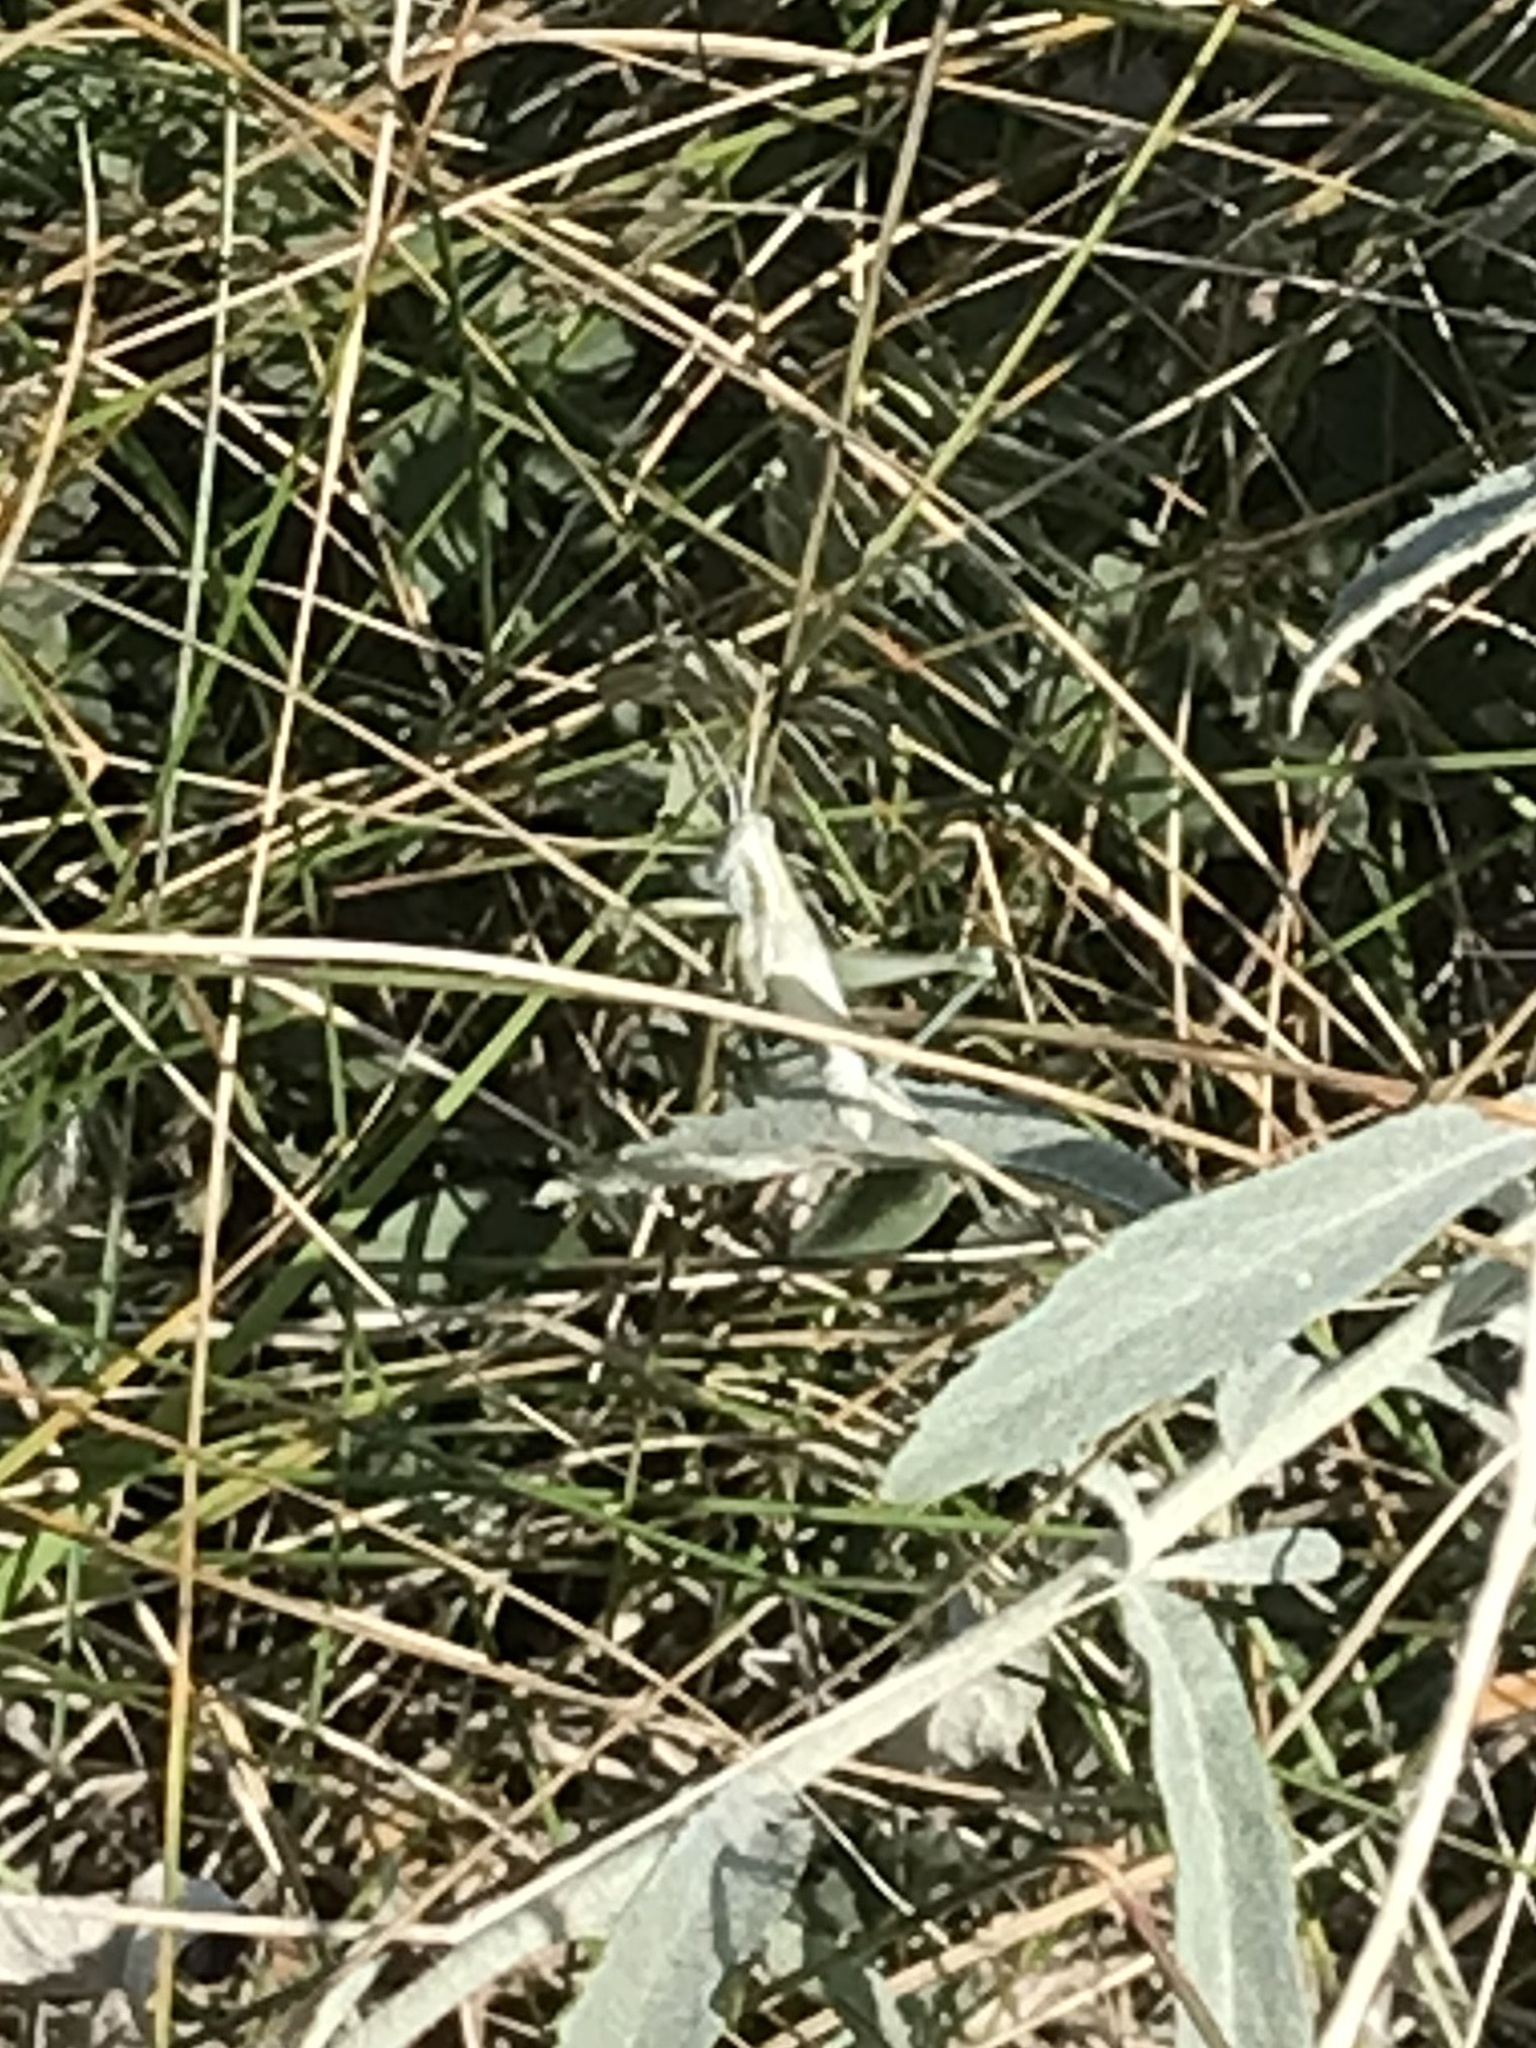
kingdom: Animalia
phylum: Arthropoda
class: Insecta
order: Orthoptera
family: Acrididae
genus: Hypochlora
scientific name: Hypochlora alba
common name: Cudweed grasshopper
